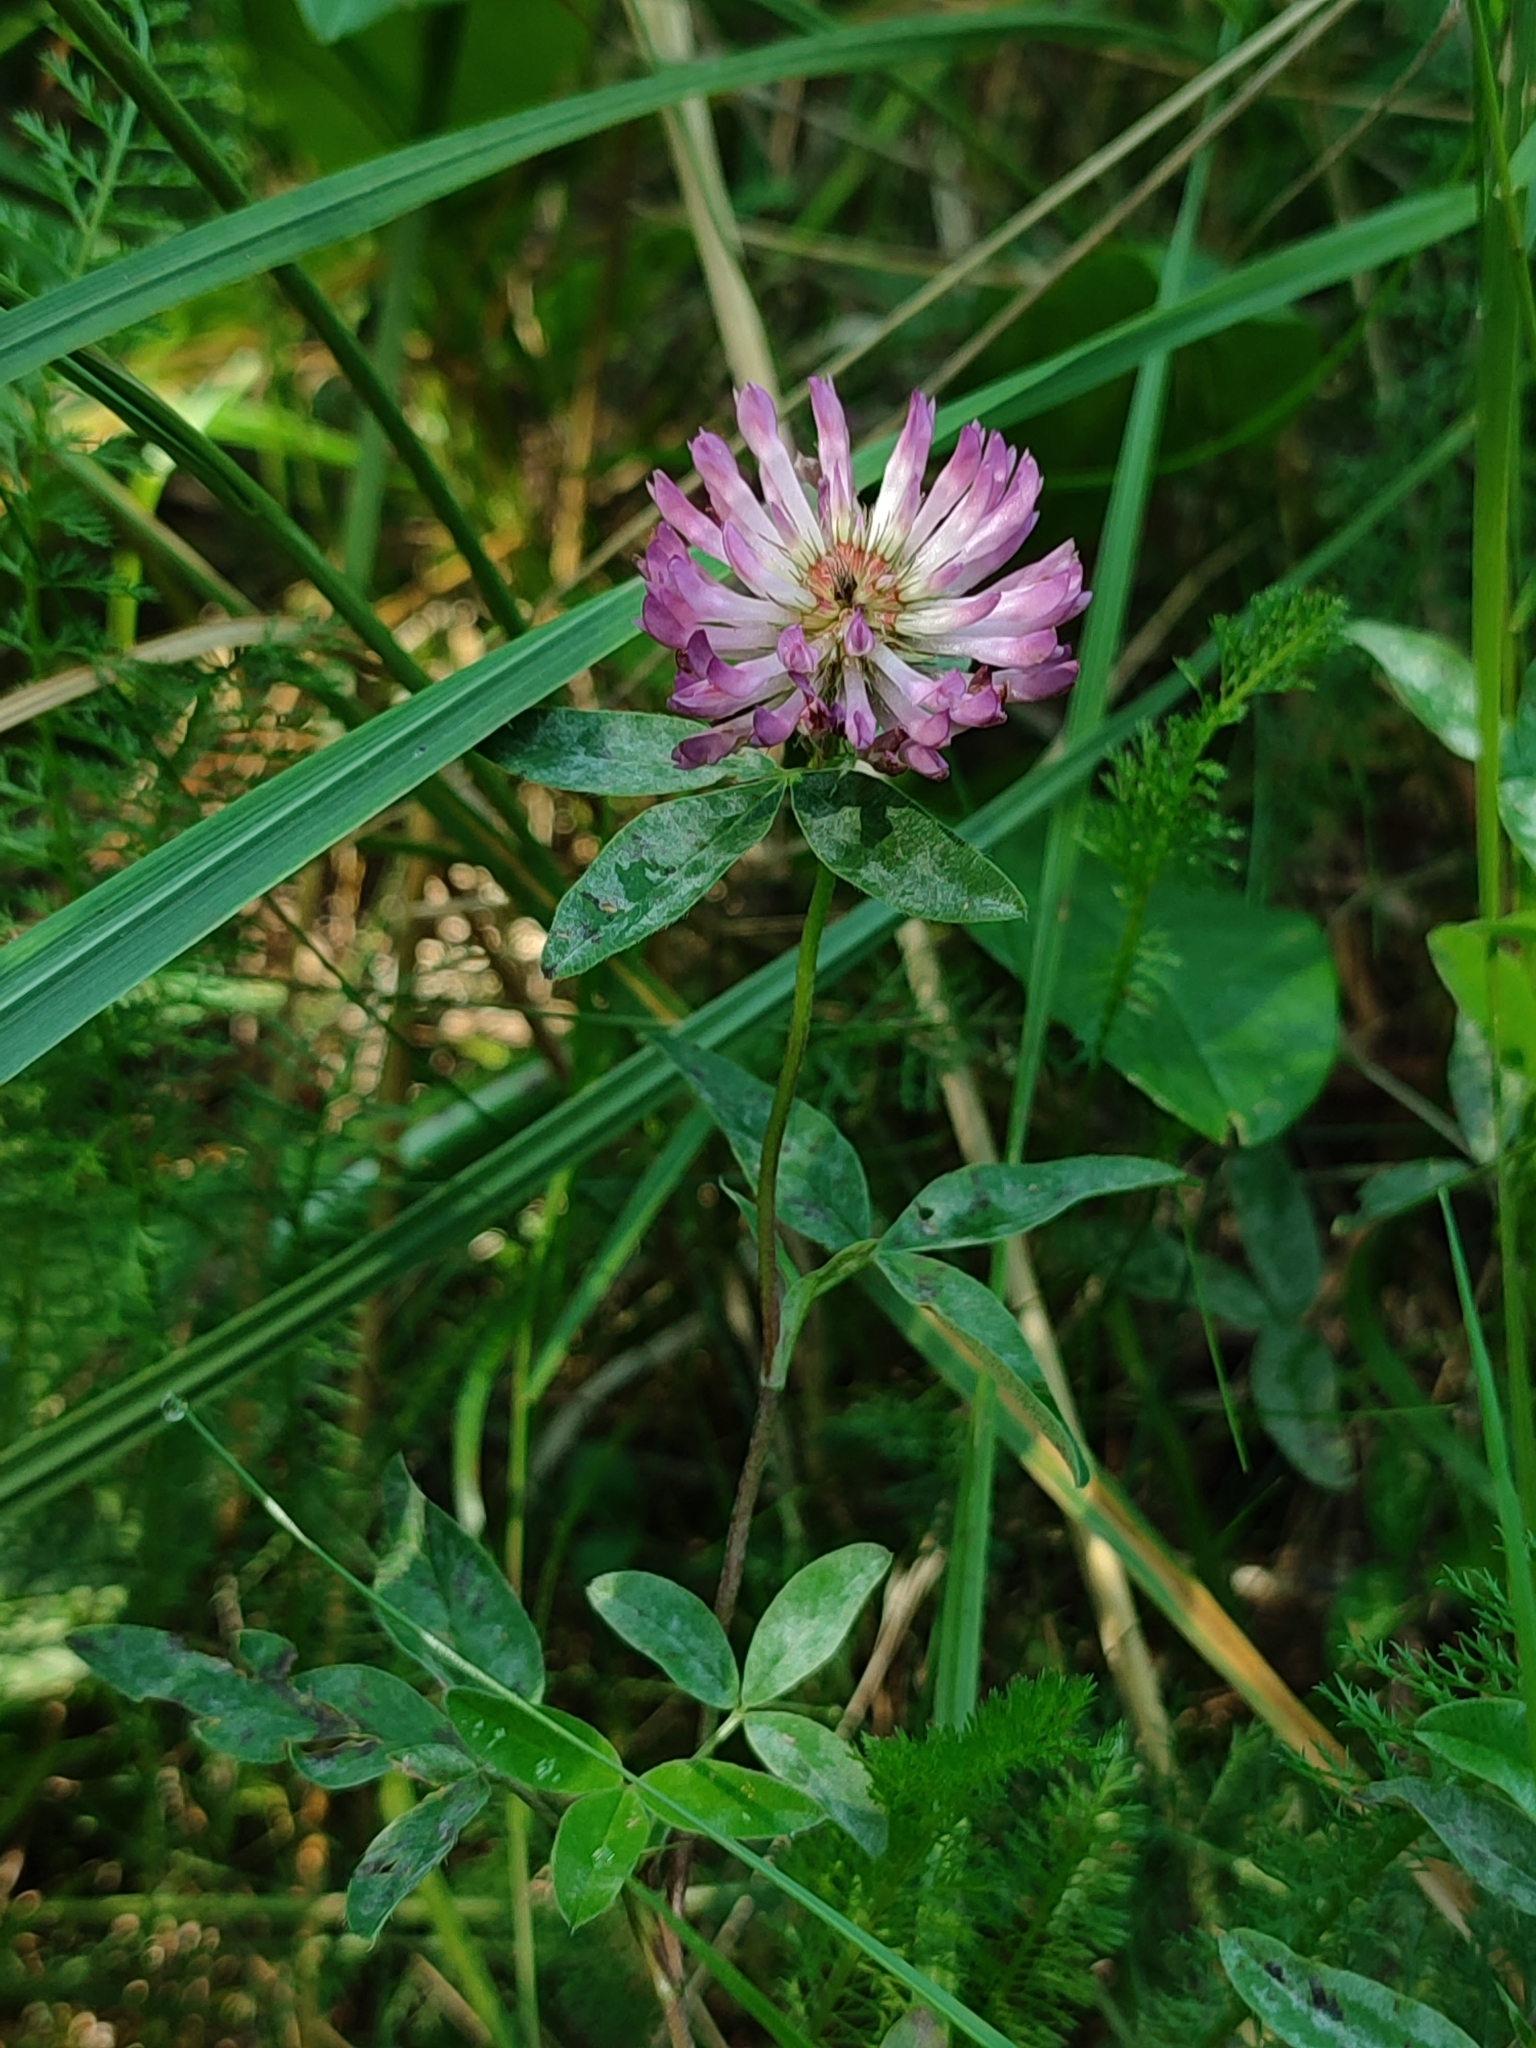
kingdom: Plantae
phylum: Tracheophyta
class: Magnoliopsida
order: Fabales
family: Fabaceae
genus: Trifolium
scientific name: Trifolium medium
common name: Zigzag clover
